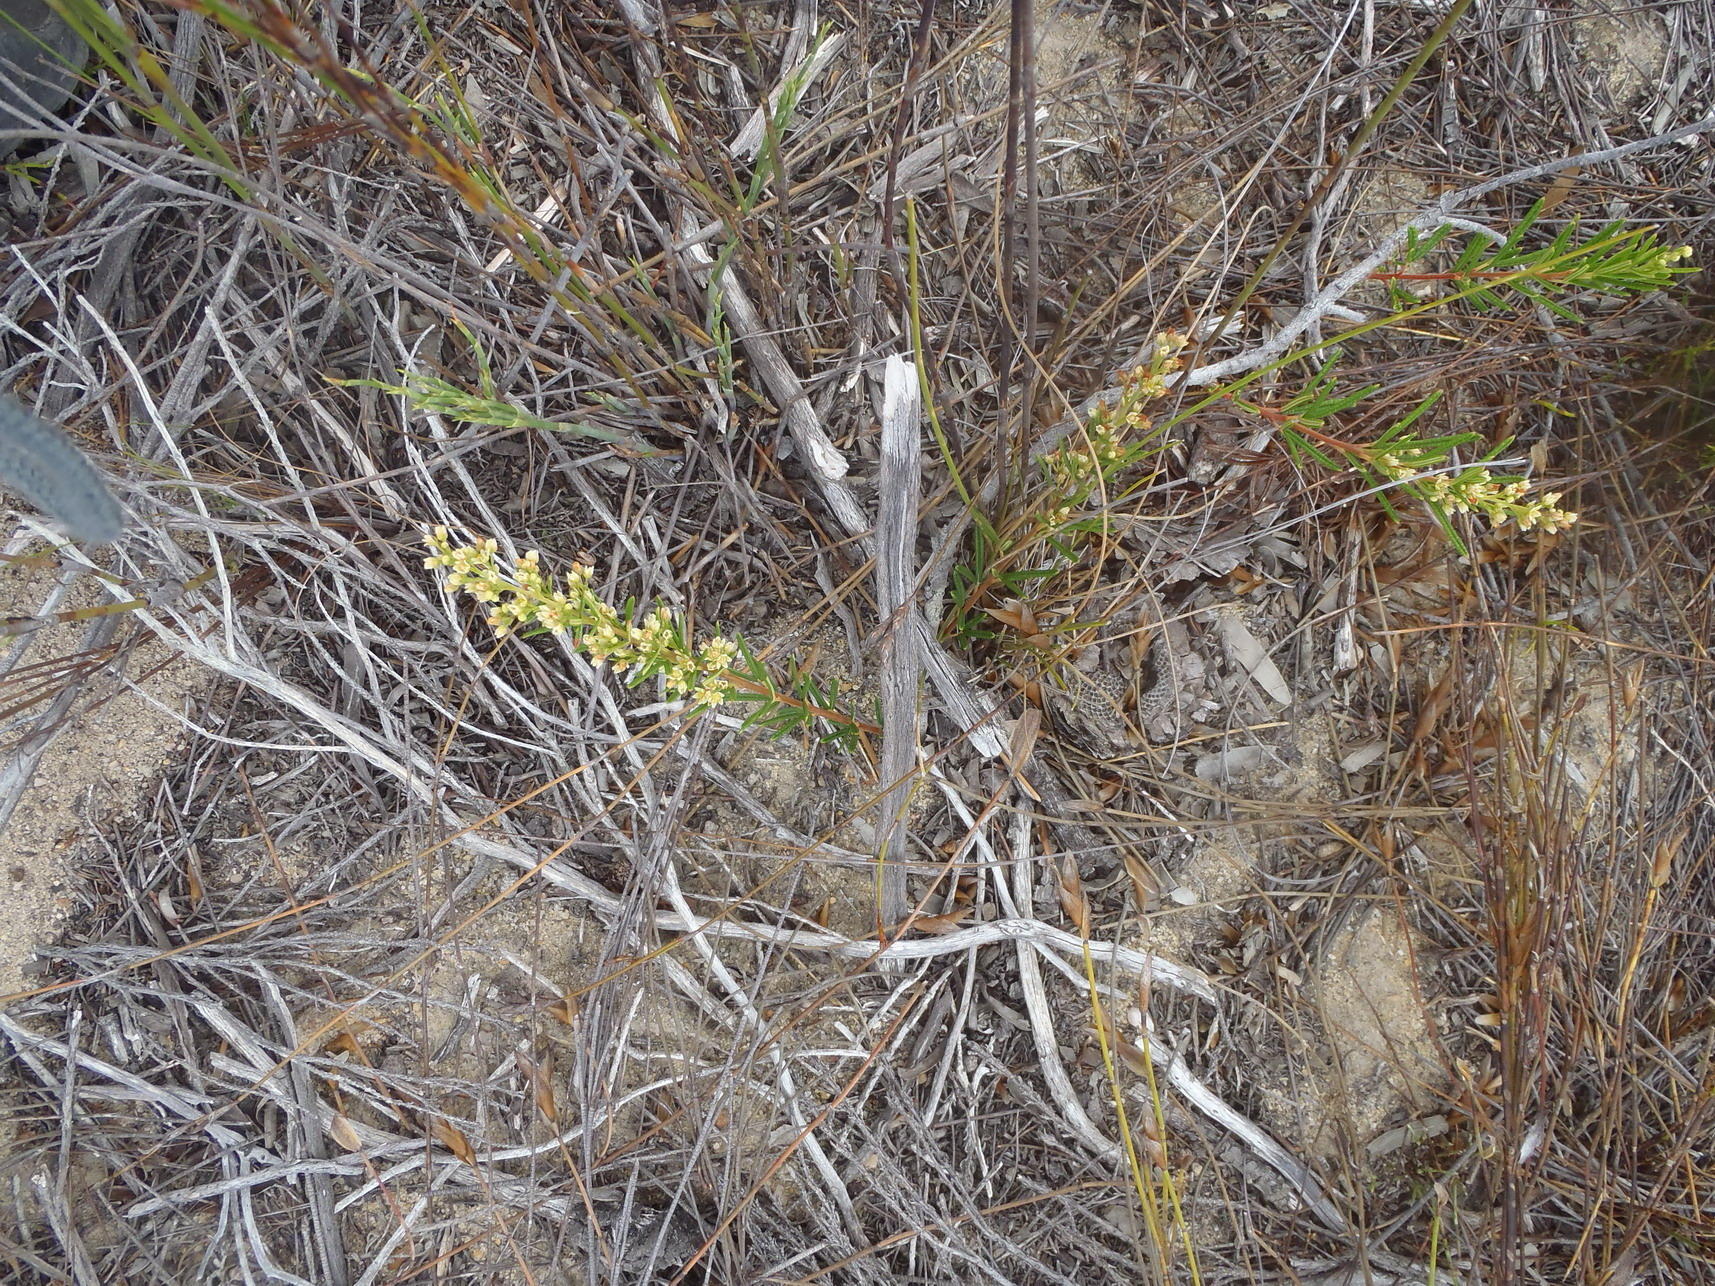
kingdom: Plantae
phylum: Tracheophyta
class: Magnoliopsida
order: Sapindales
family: Anacardiaceae
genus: Searsia
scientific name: Searsia rosmarinifolia
